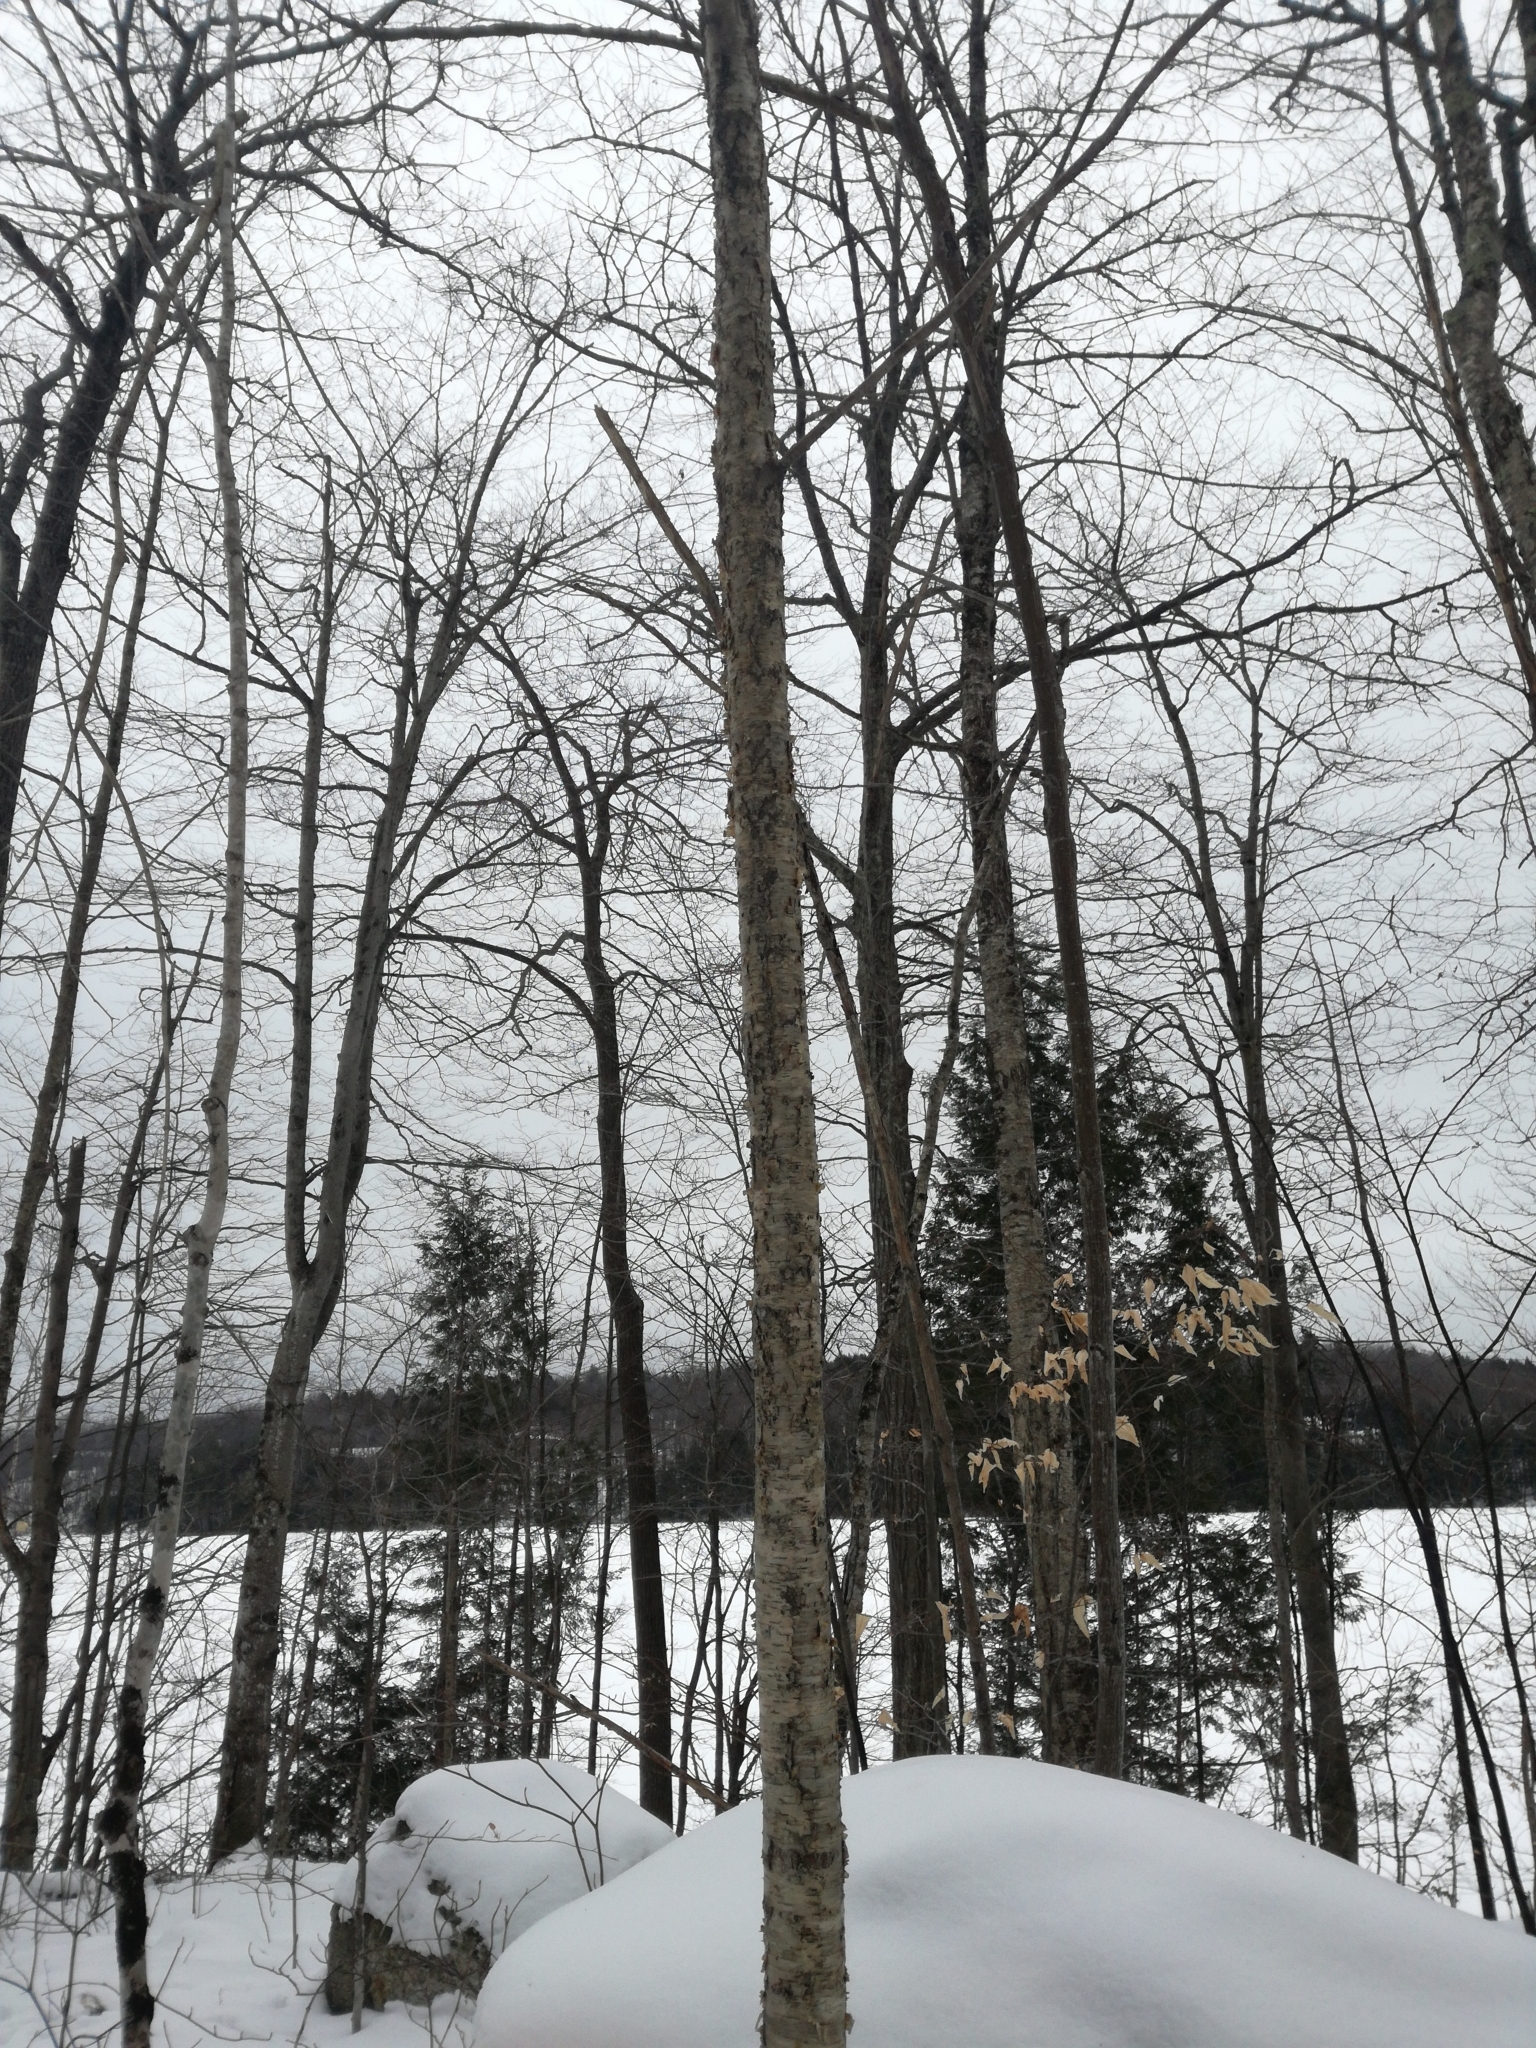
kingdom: Plantae
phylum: Tracheophyta
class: Magnoliopsida
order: Fagales
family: Betulaceae
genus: Betula
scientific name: Betula alleghaniensis
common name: Yellow birch
